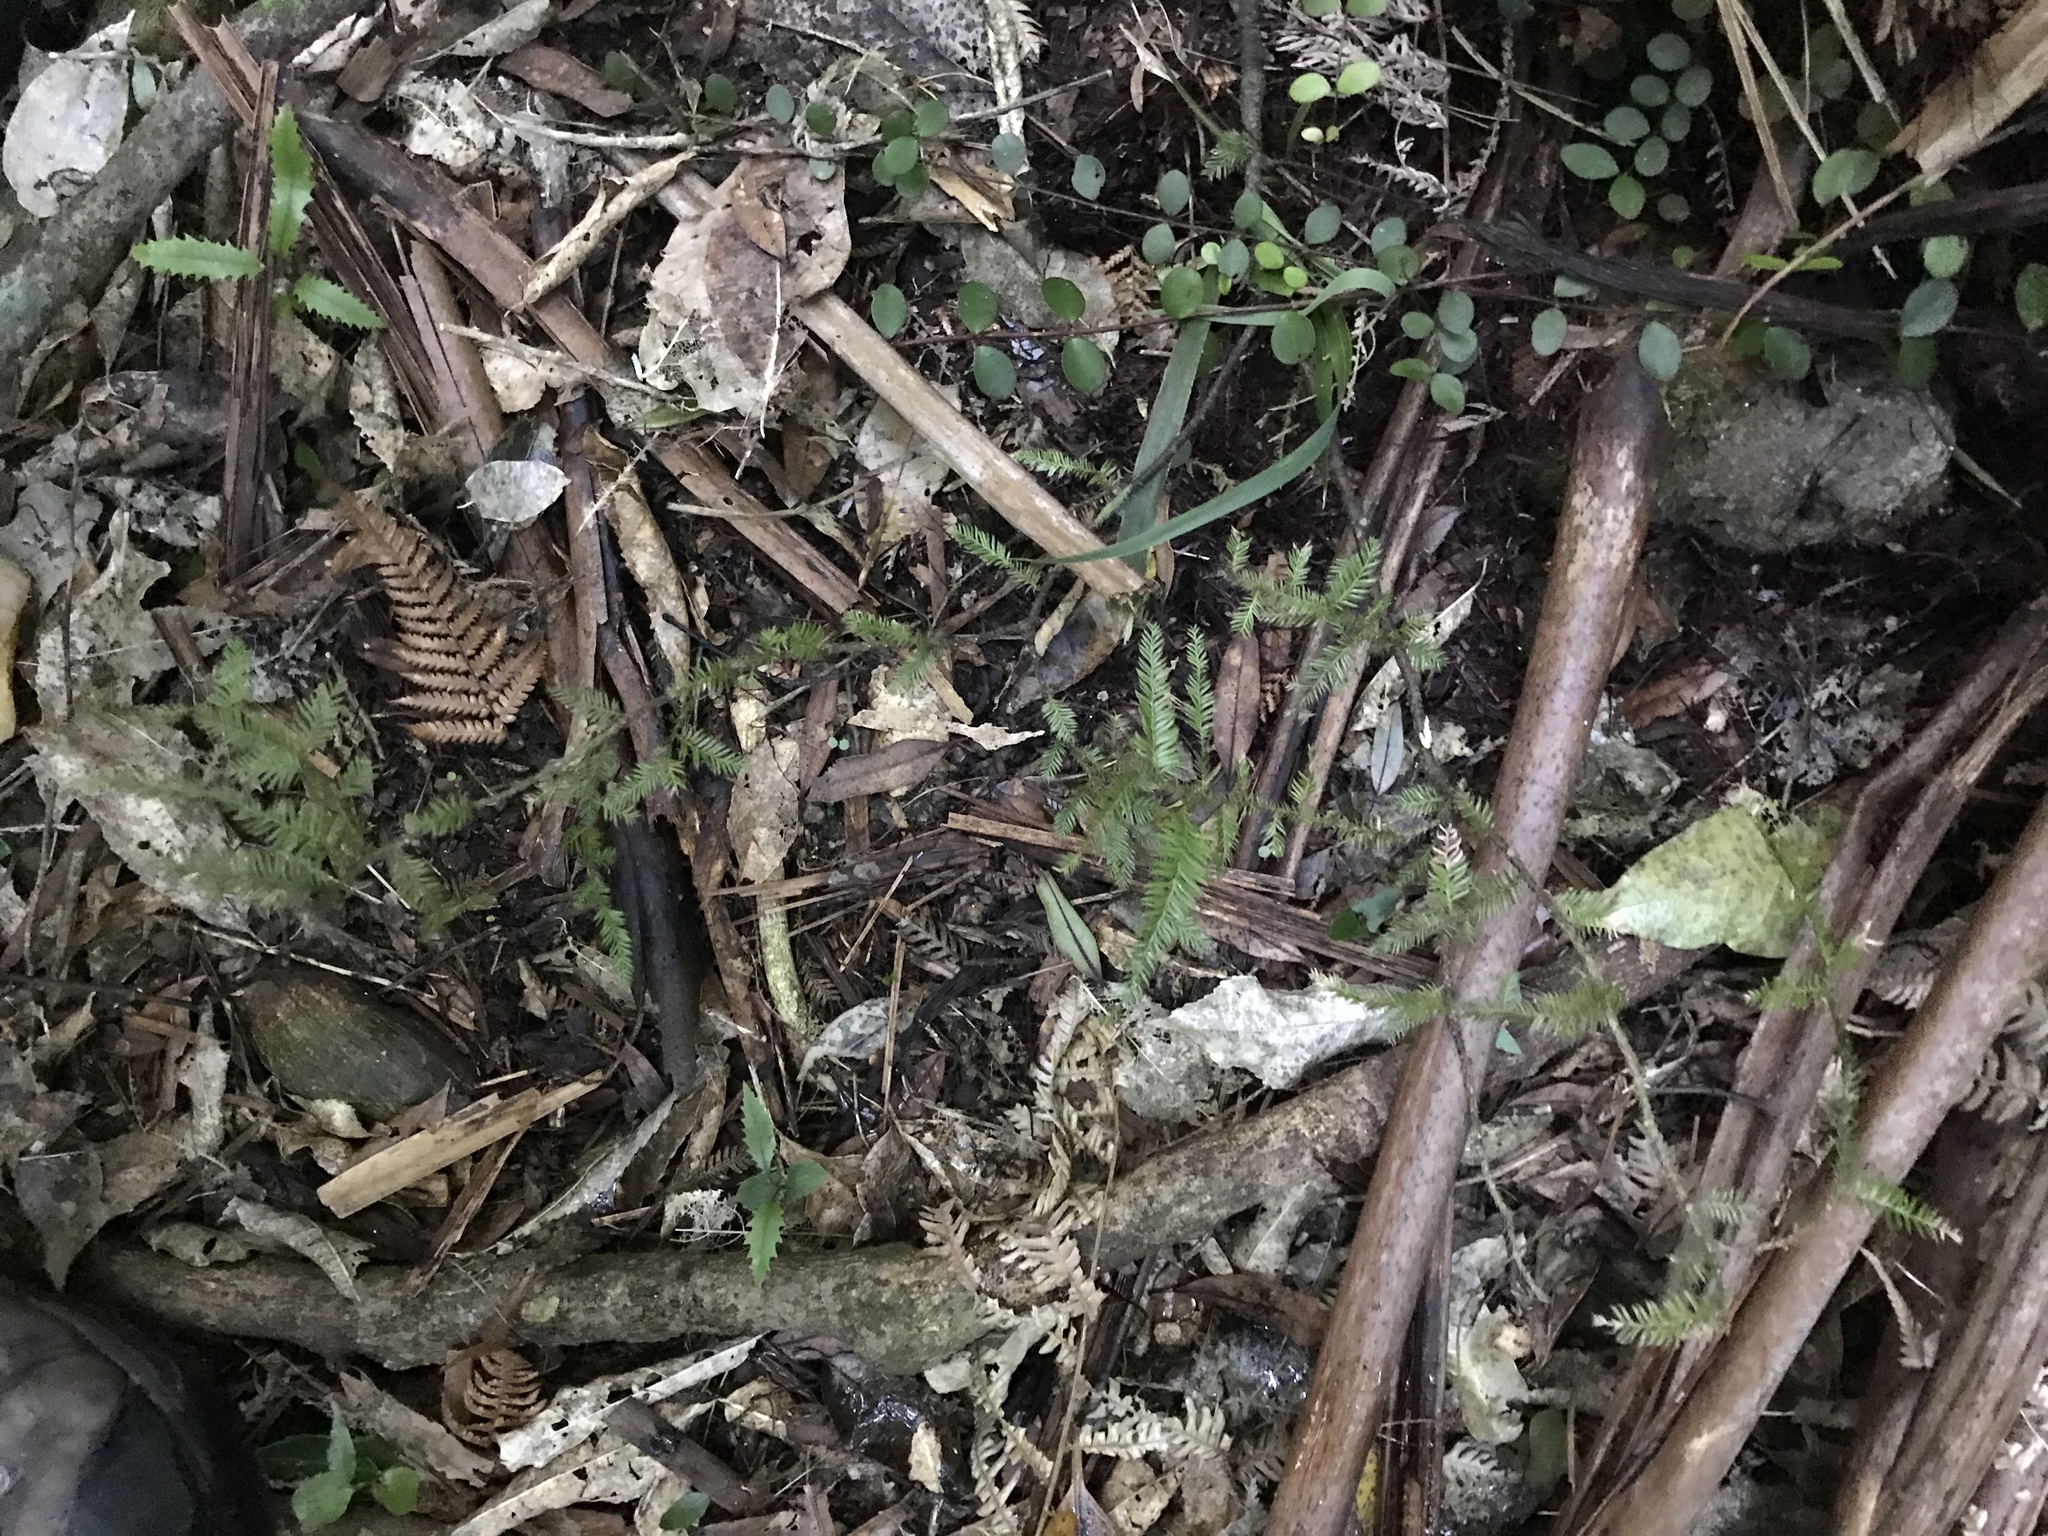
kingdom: Plantae
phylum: Tracheophyta
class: Pinopsida
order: Pinales
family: Podocarpaceae
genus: Dacrycarpus
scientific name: Dacrycarpus dacrydioides
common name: White pine
